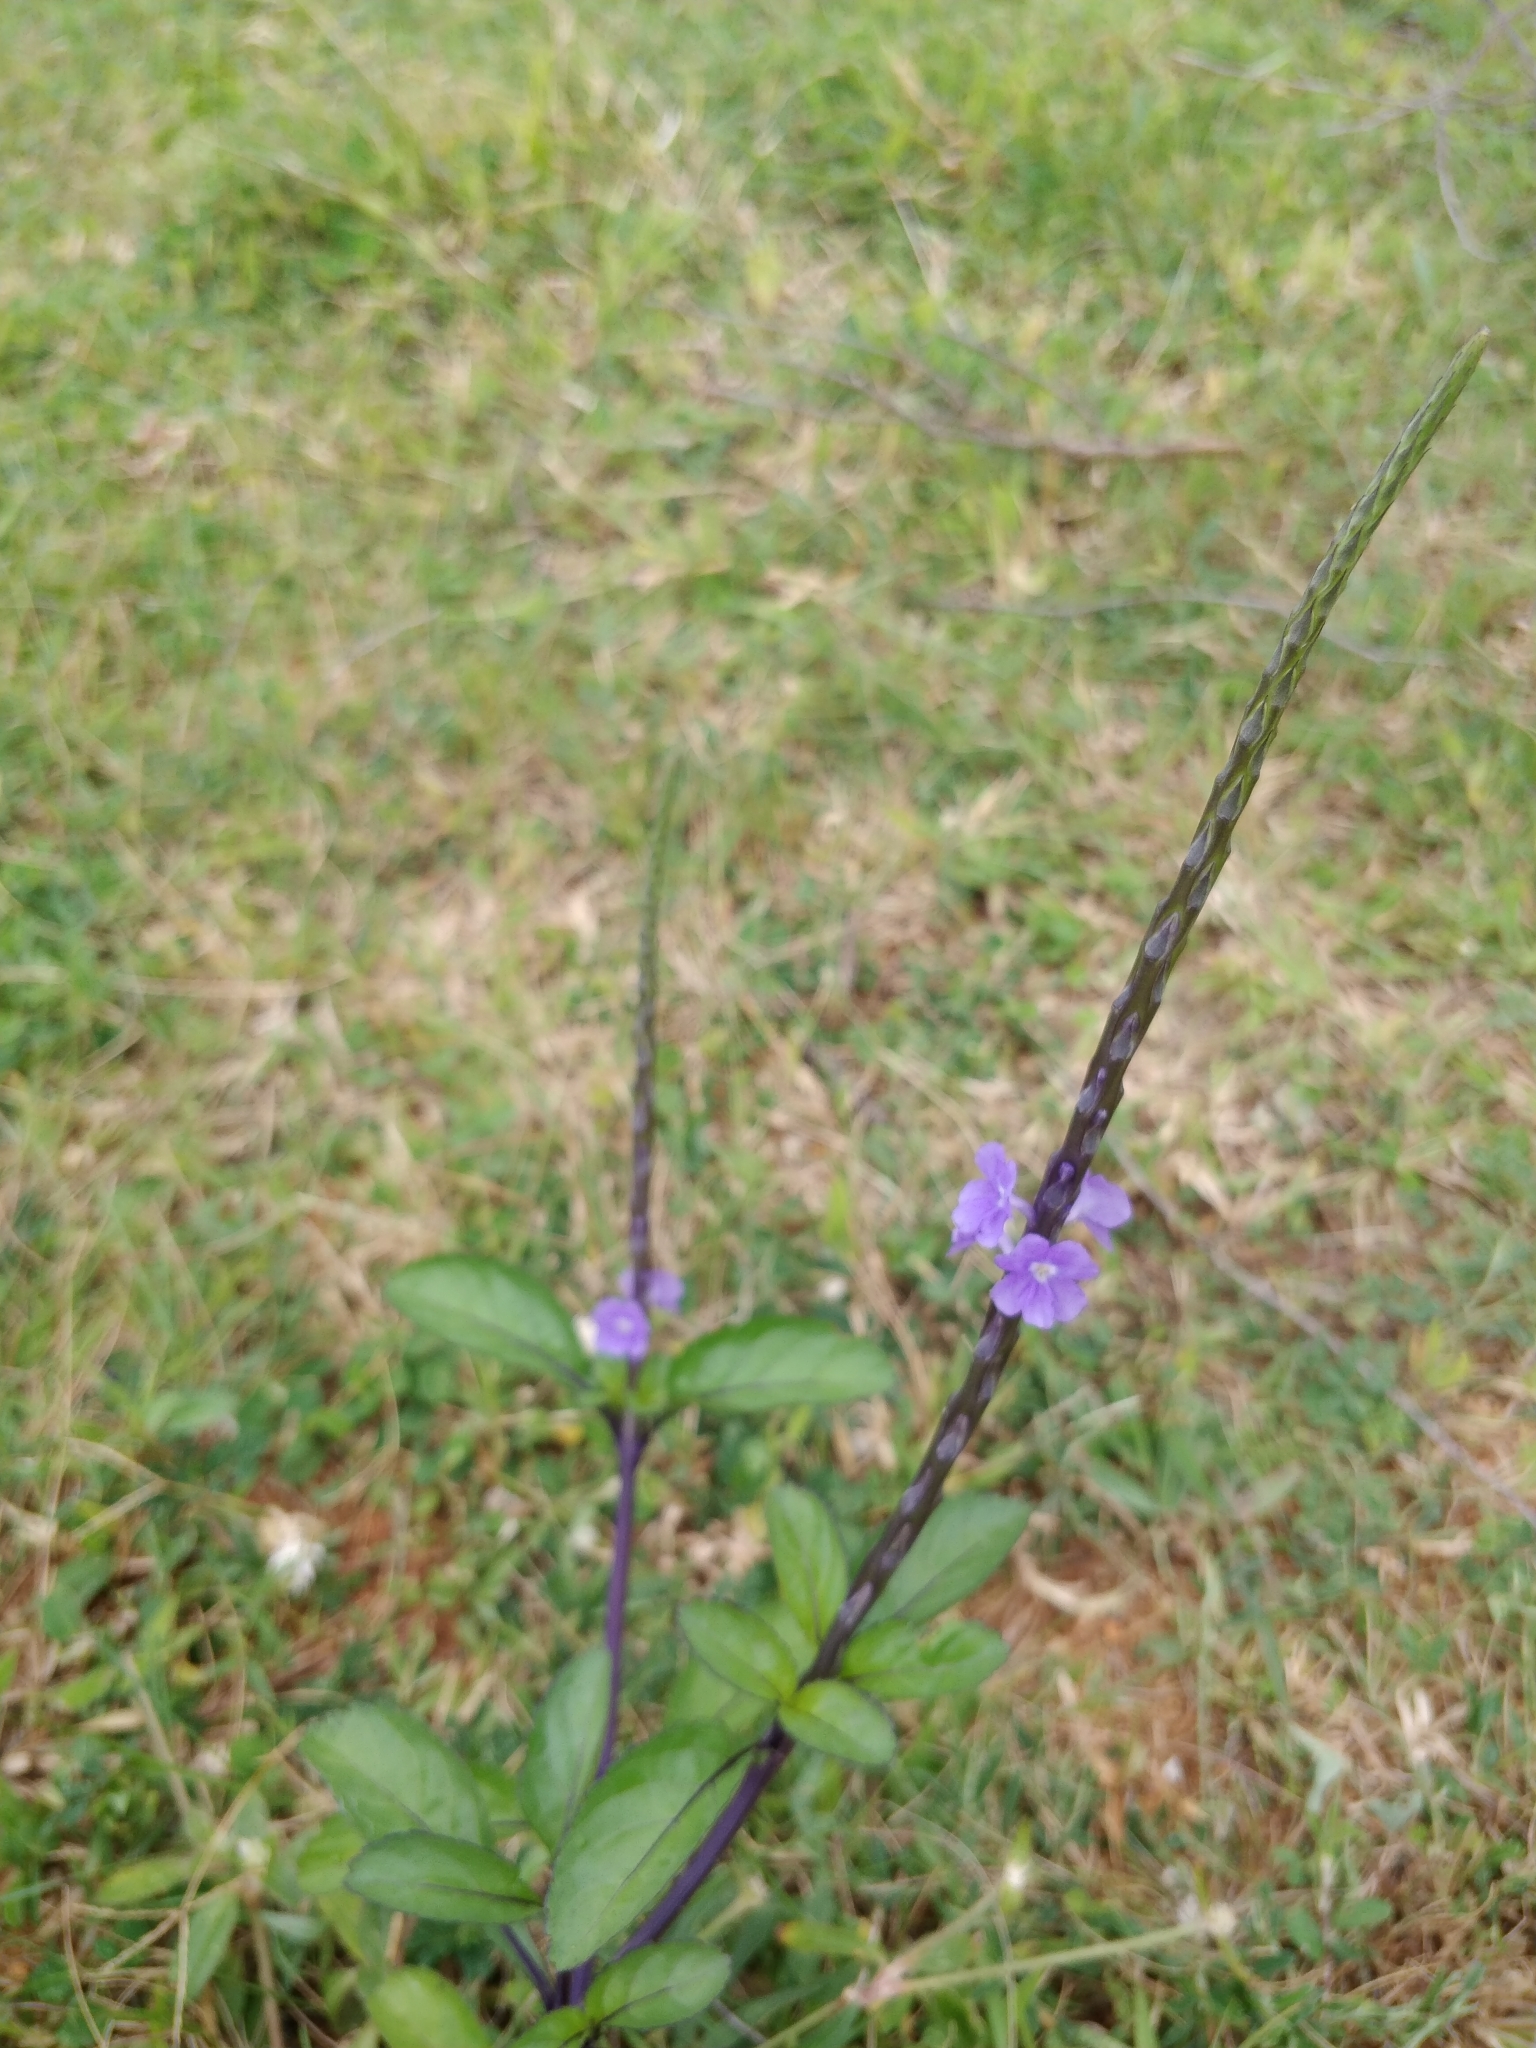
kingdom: Plantae
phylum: Tracheophyta
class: Magnoliopsida
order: Lamiales
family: Verbenaceae
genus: Stachytarpheta
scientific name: Stachytarpheta jamaicensis
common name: Light-blue snakeweed
